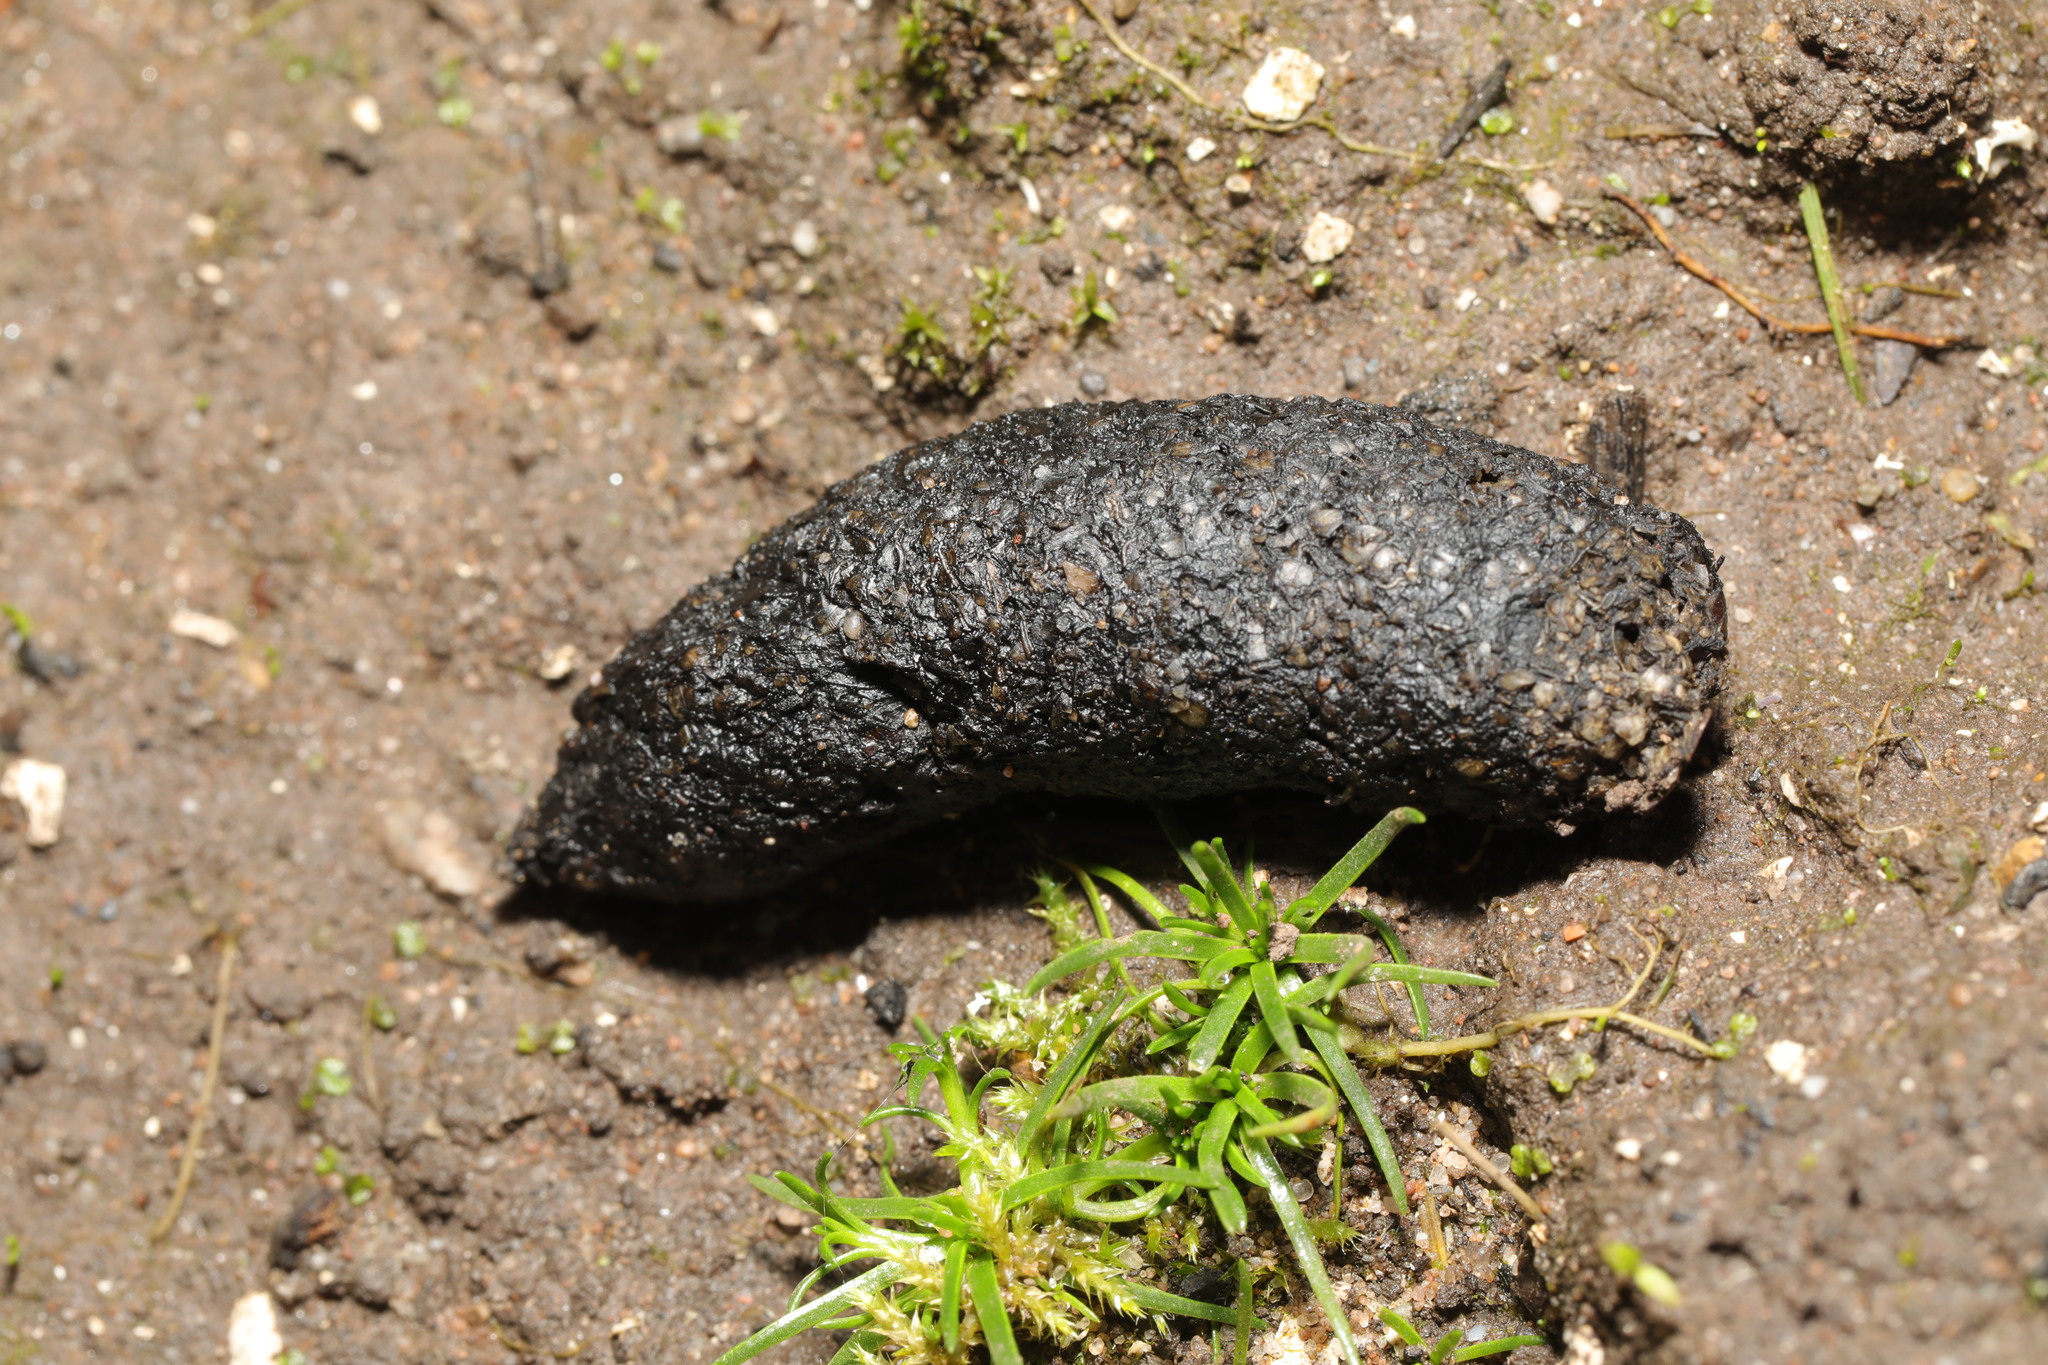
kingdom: Animalia
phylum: Chordata
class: Mammalia
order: Erinaceomorpha
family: Erinaceidae
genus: Erinaceus
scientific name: Erinaceus europaeus
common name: West european hedgehog
